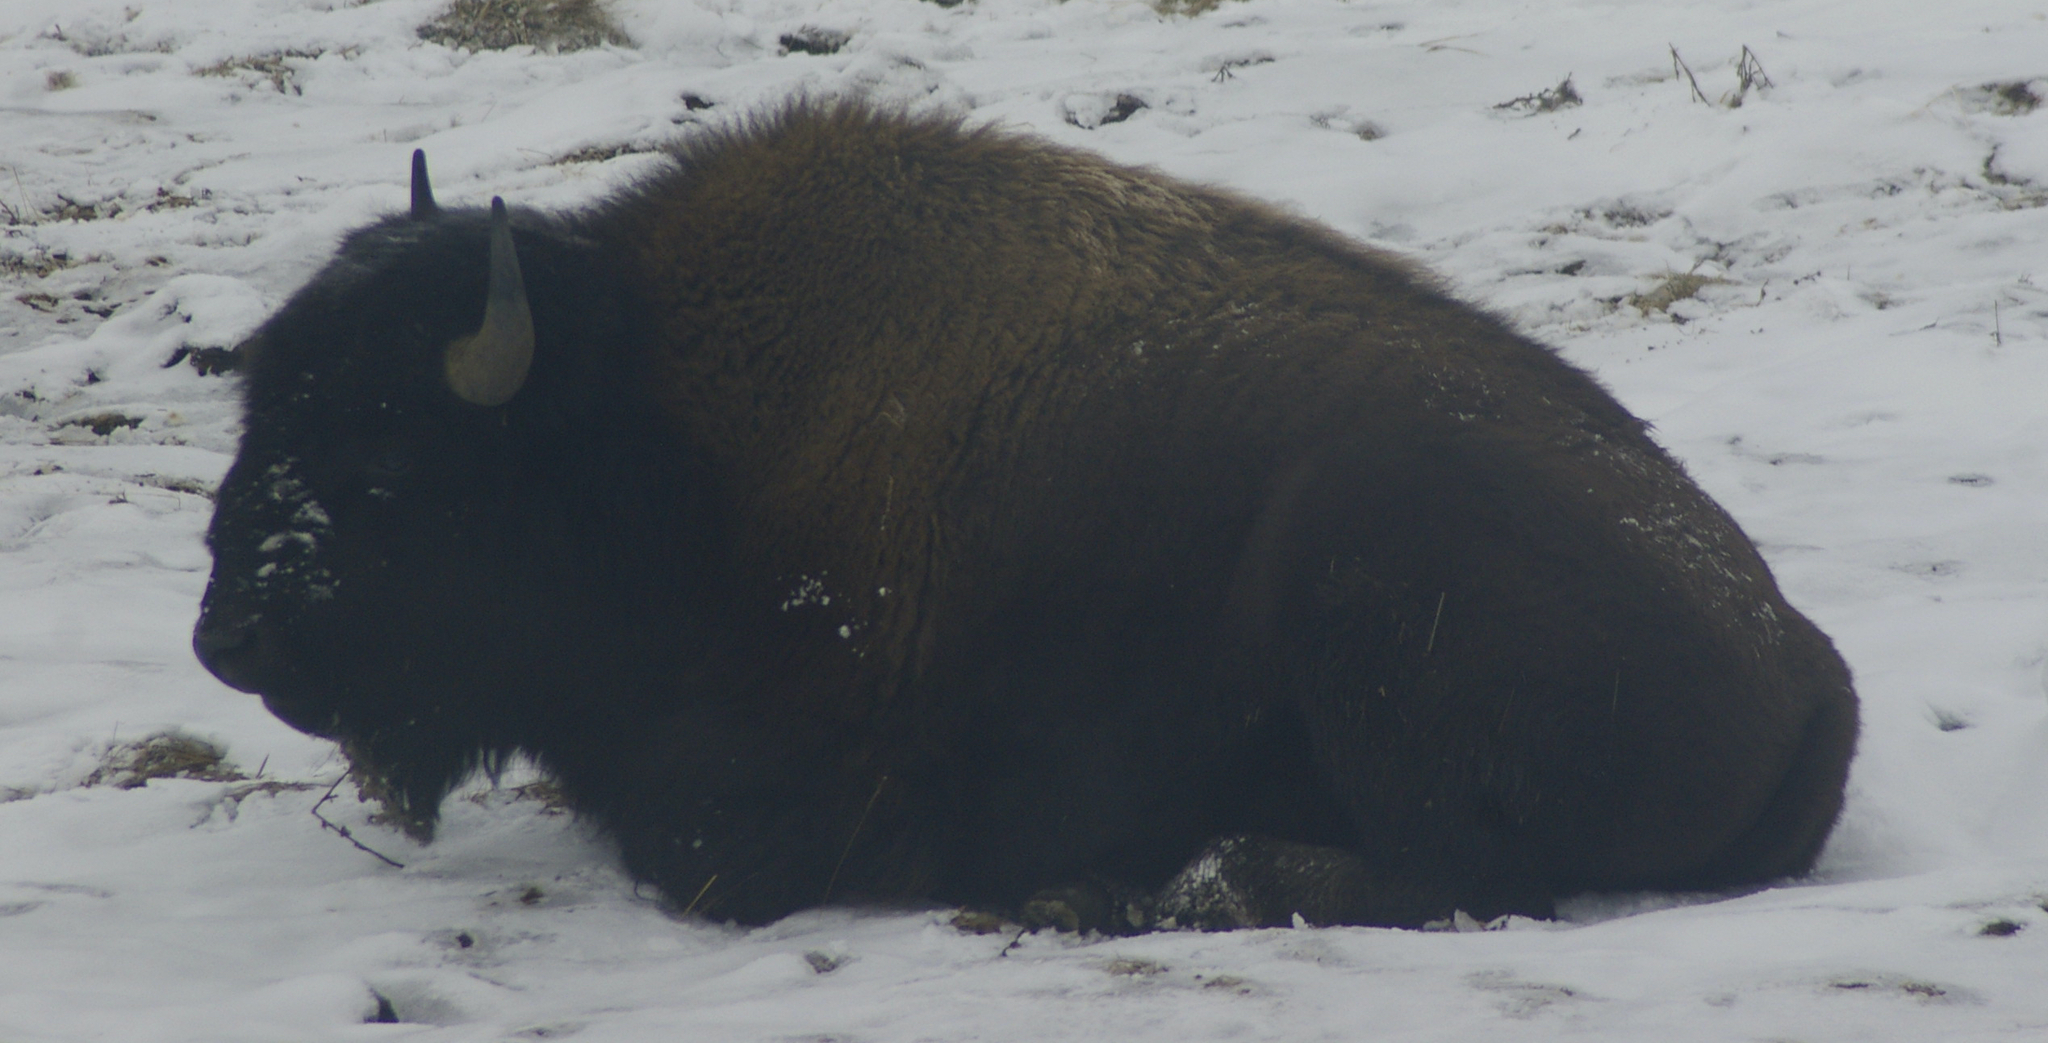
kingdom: Animalia
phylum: Chordata
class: Mammalia
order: Artiodactyla
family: Bovidae
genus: Bison
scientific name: Bison bison
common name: American bison
